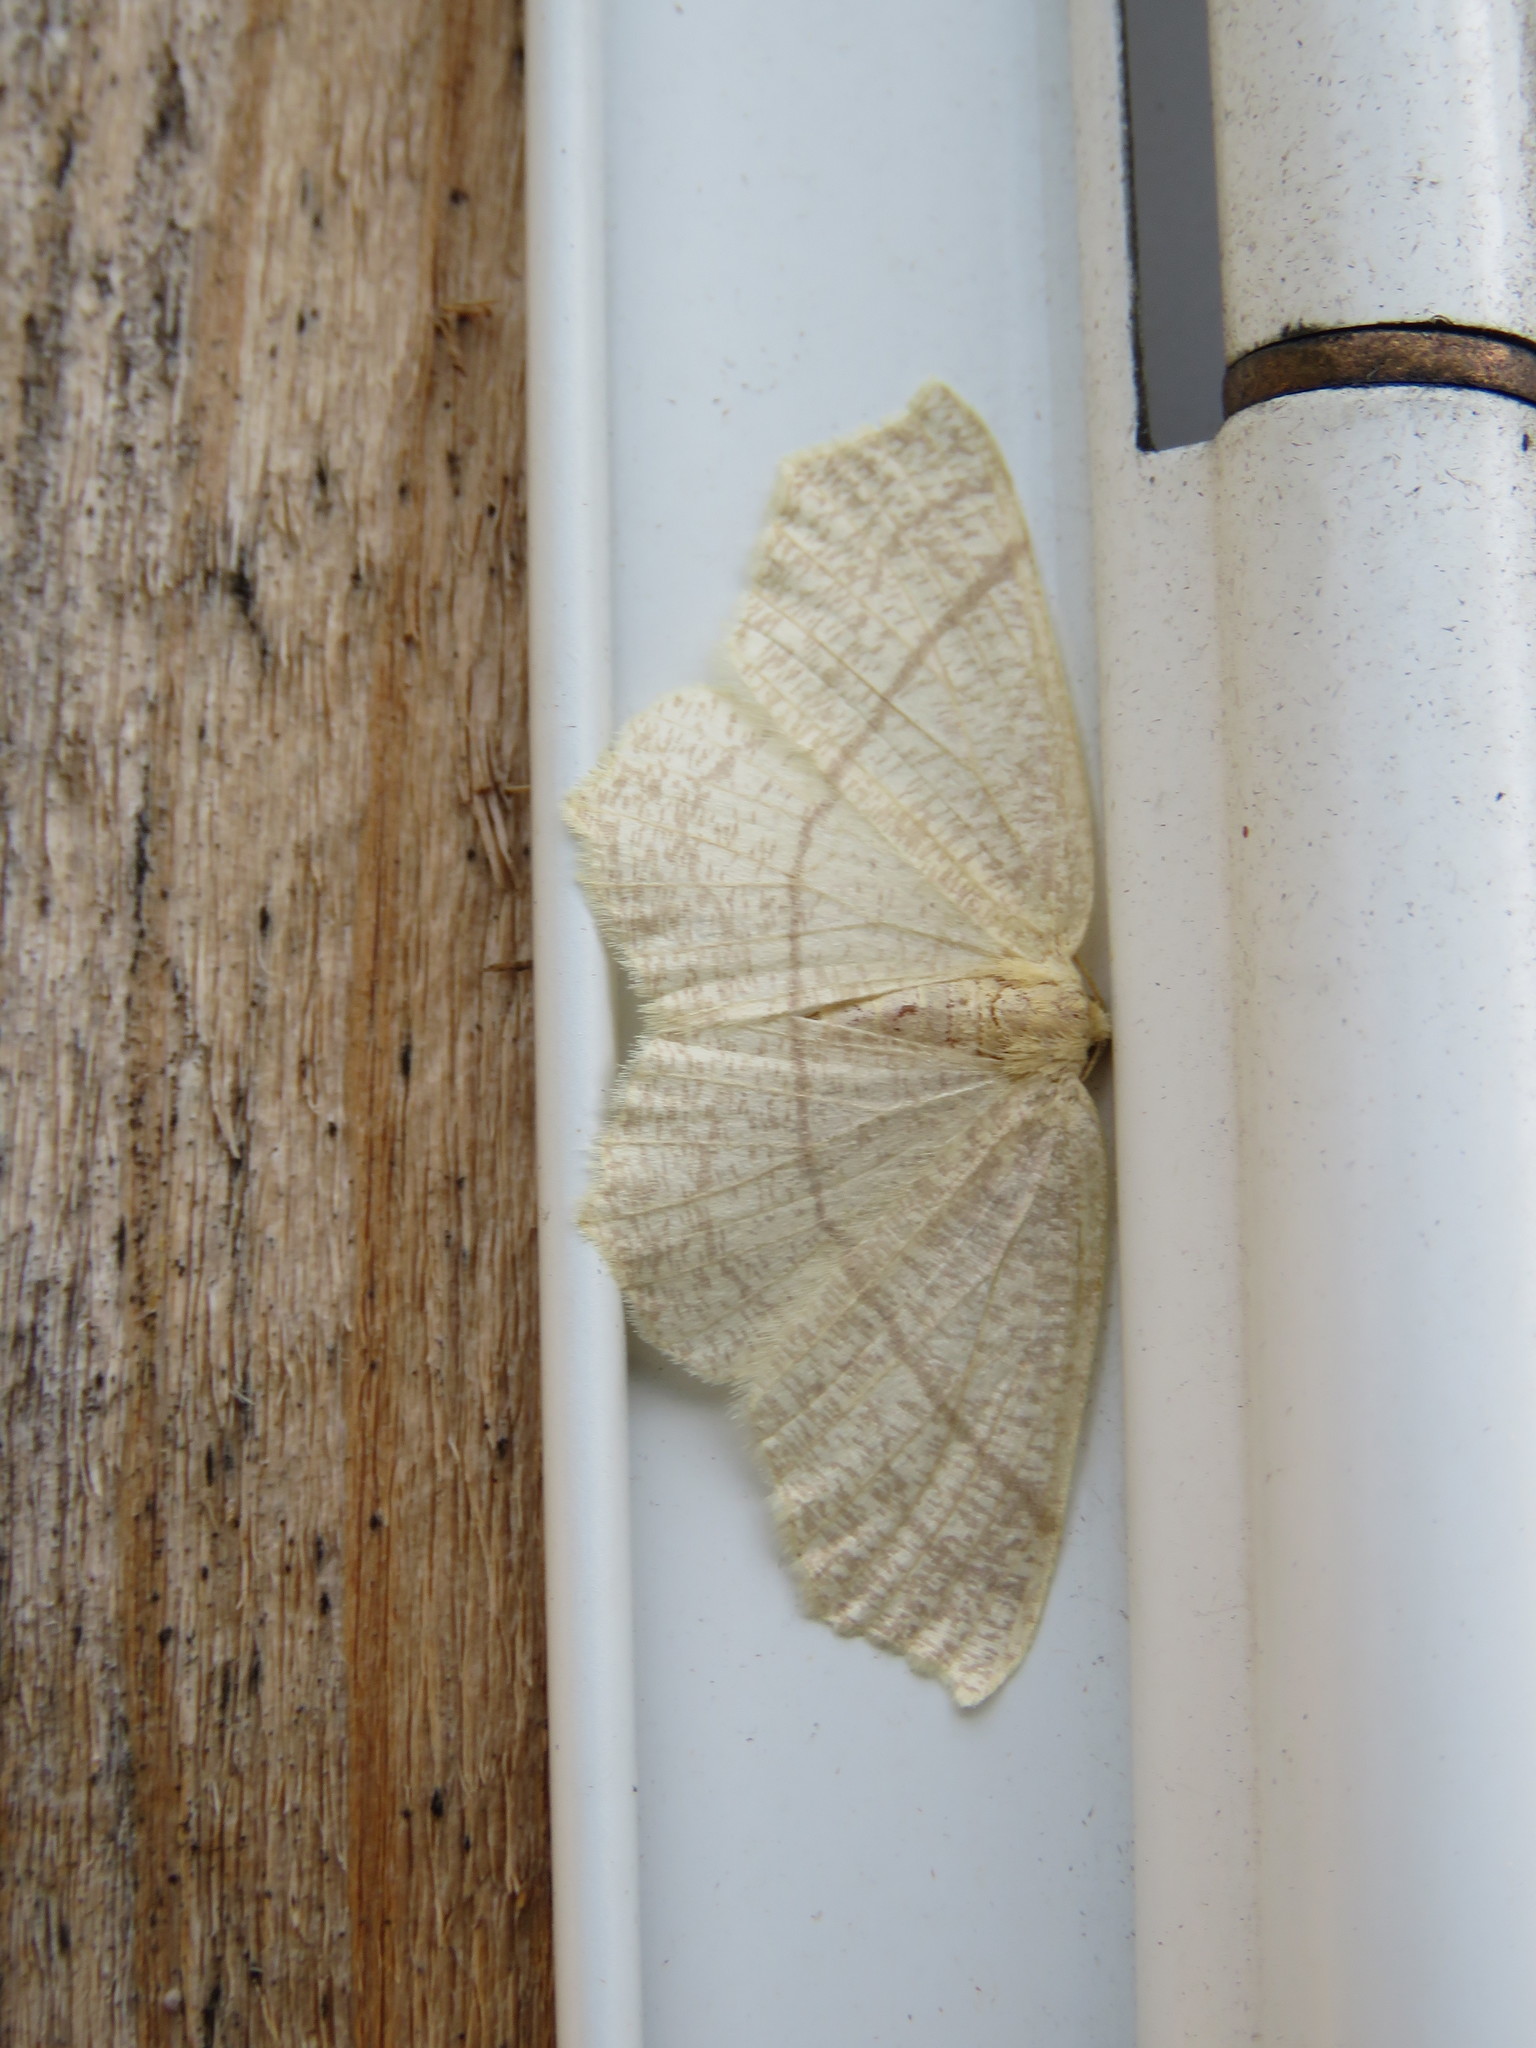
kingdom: Animalia
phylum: Arthropoda
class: Insecta
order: Lepidoptera
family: Geometridae
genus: Besma
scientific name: Besma endropiaria
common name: Straw besma
